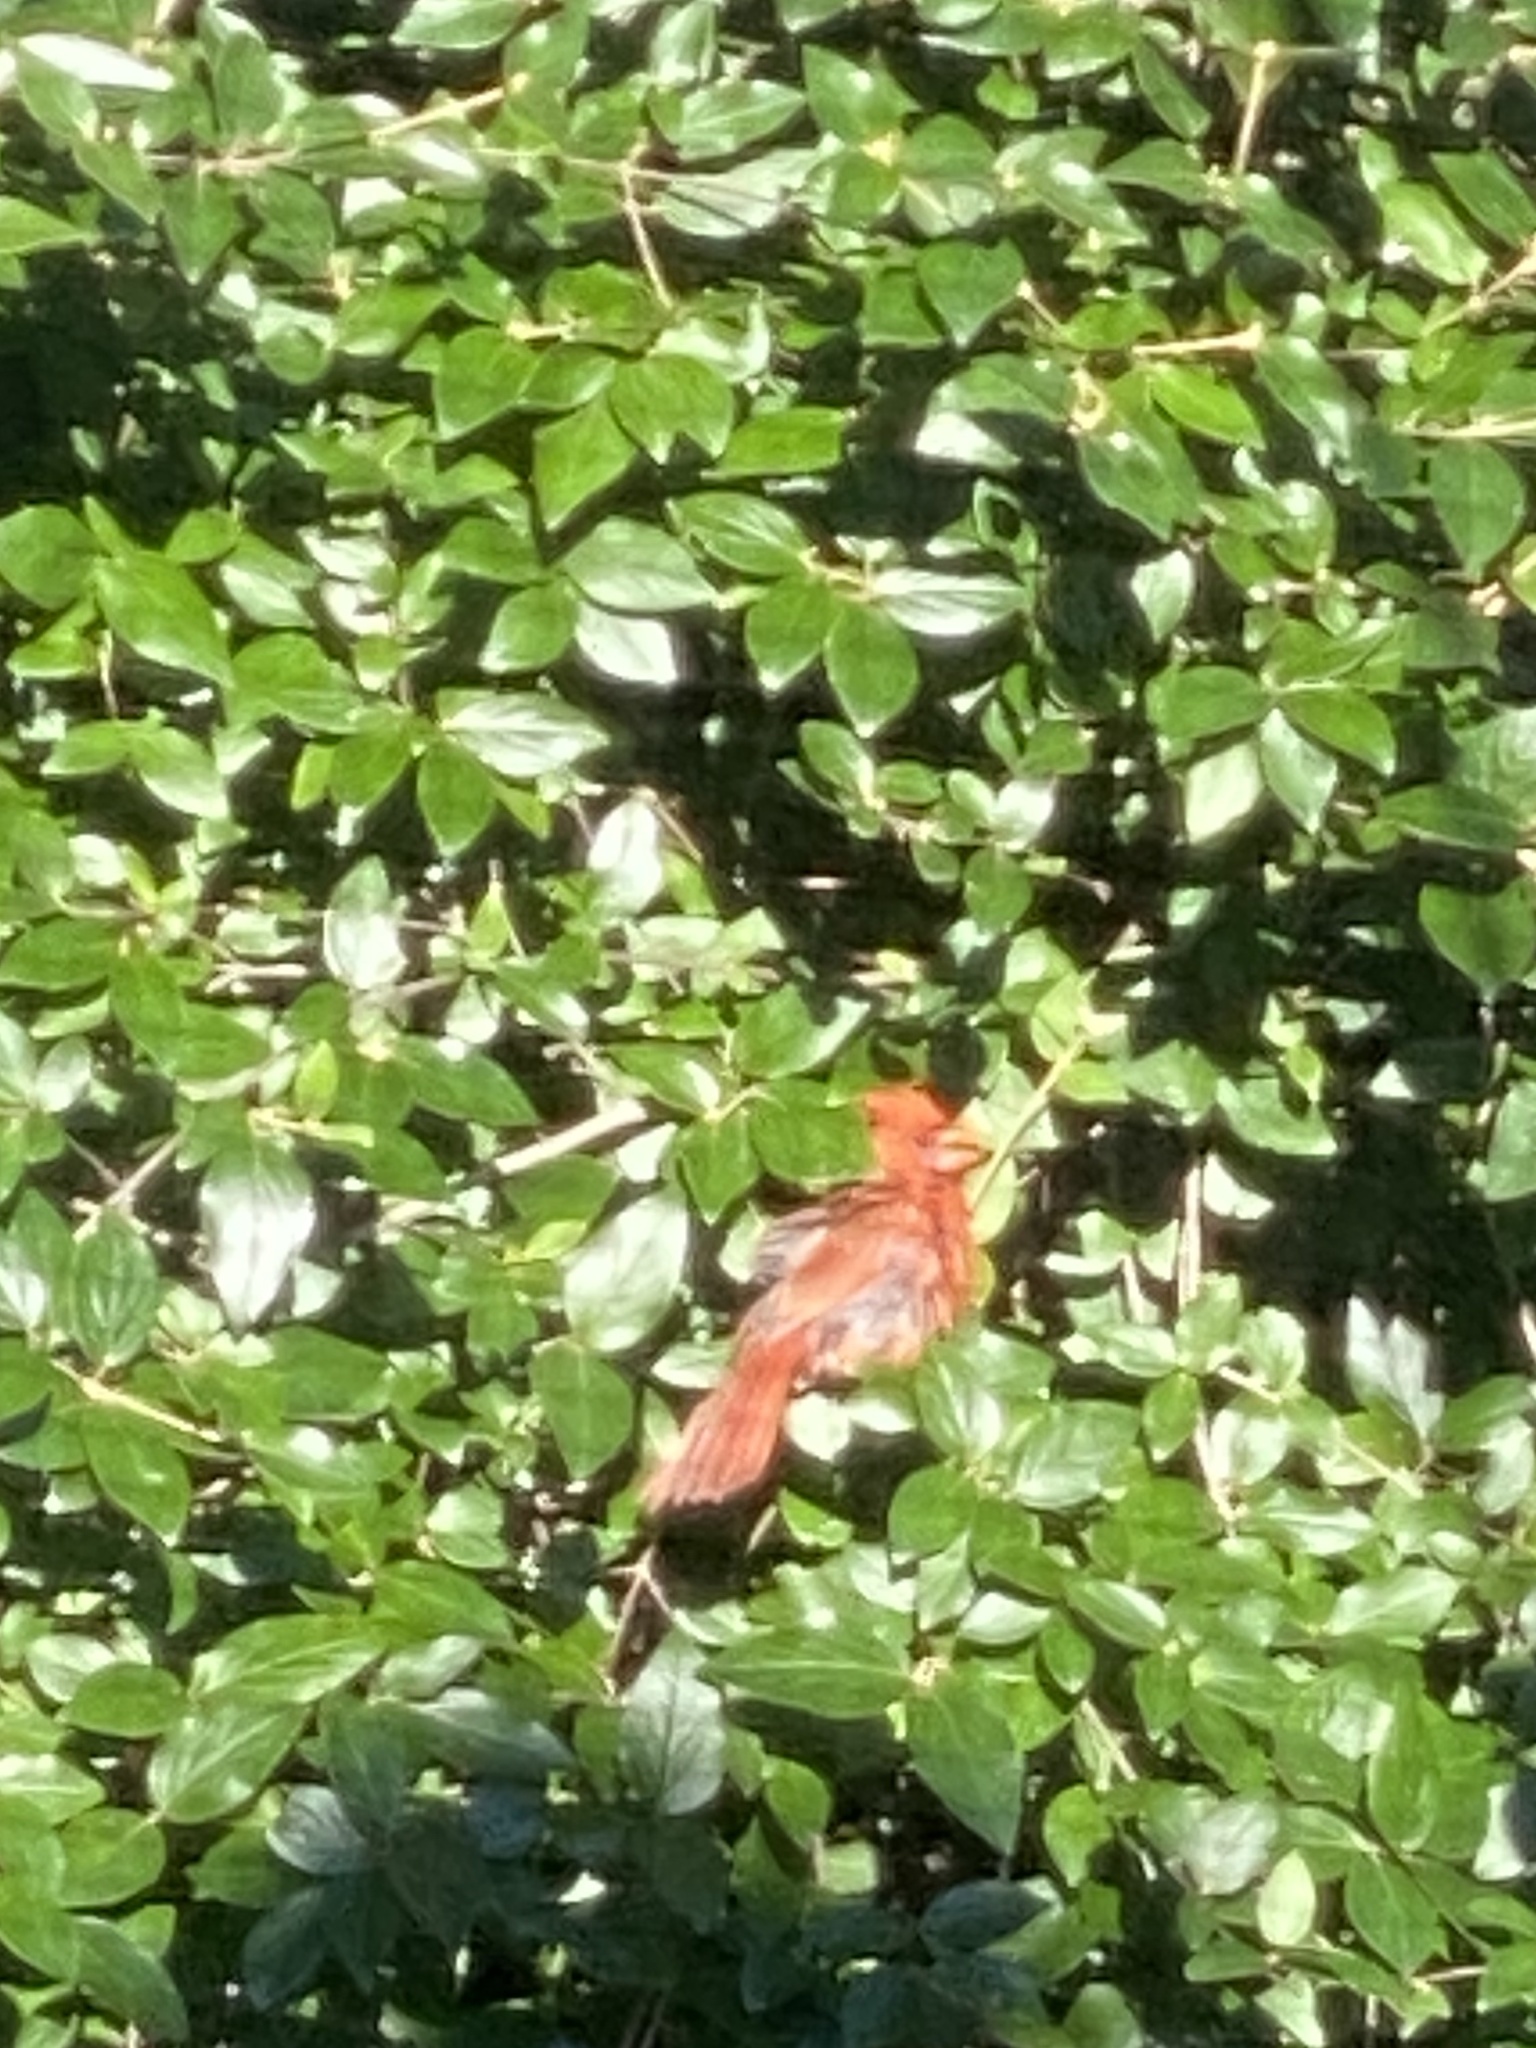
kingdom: Animalia
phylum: Chordata
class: Aves
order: Passeriformes
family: Cardinalidae
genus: Cardinalis
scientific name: Cardinalis cardinalis
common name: Northern cardinal
